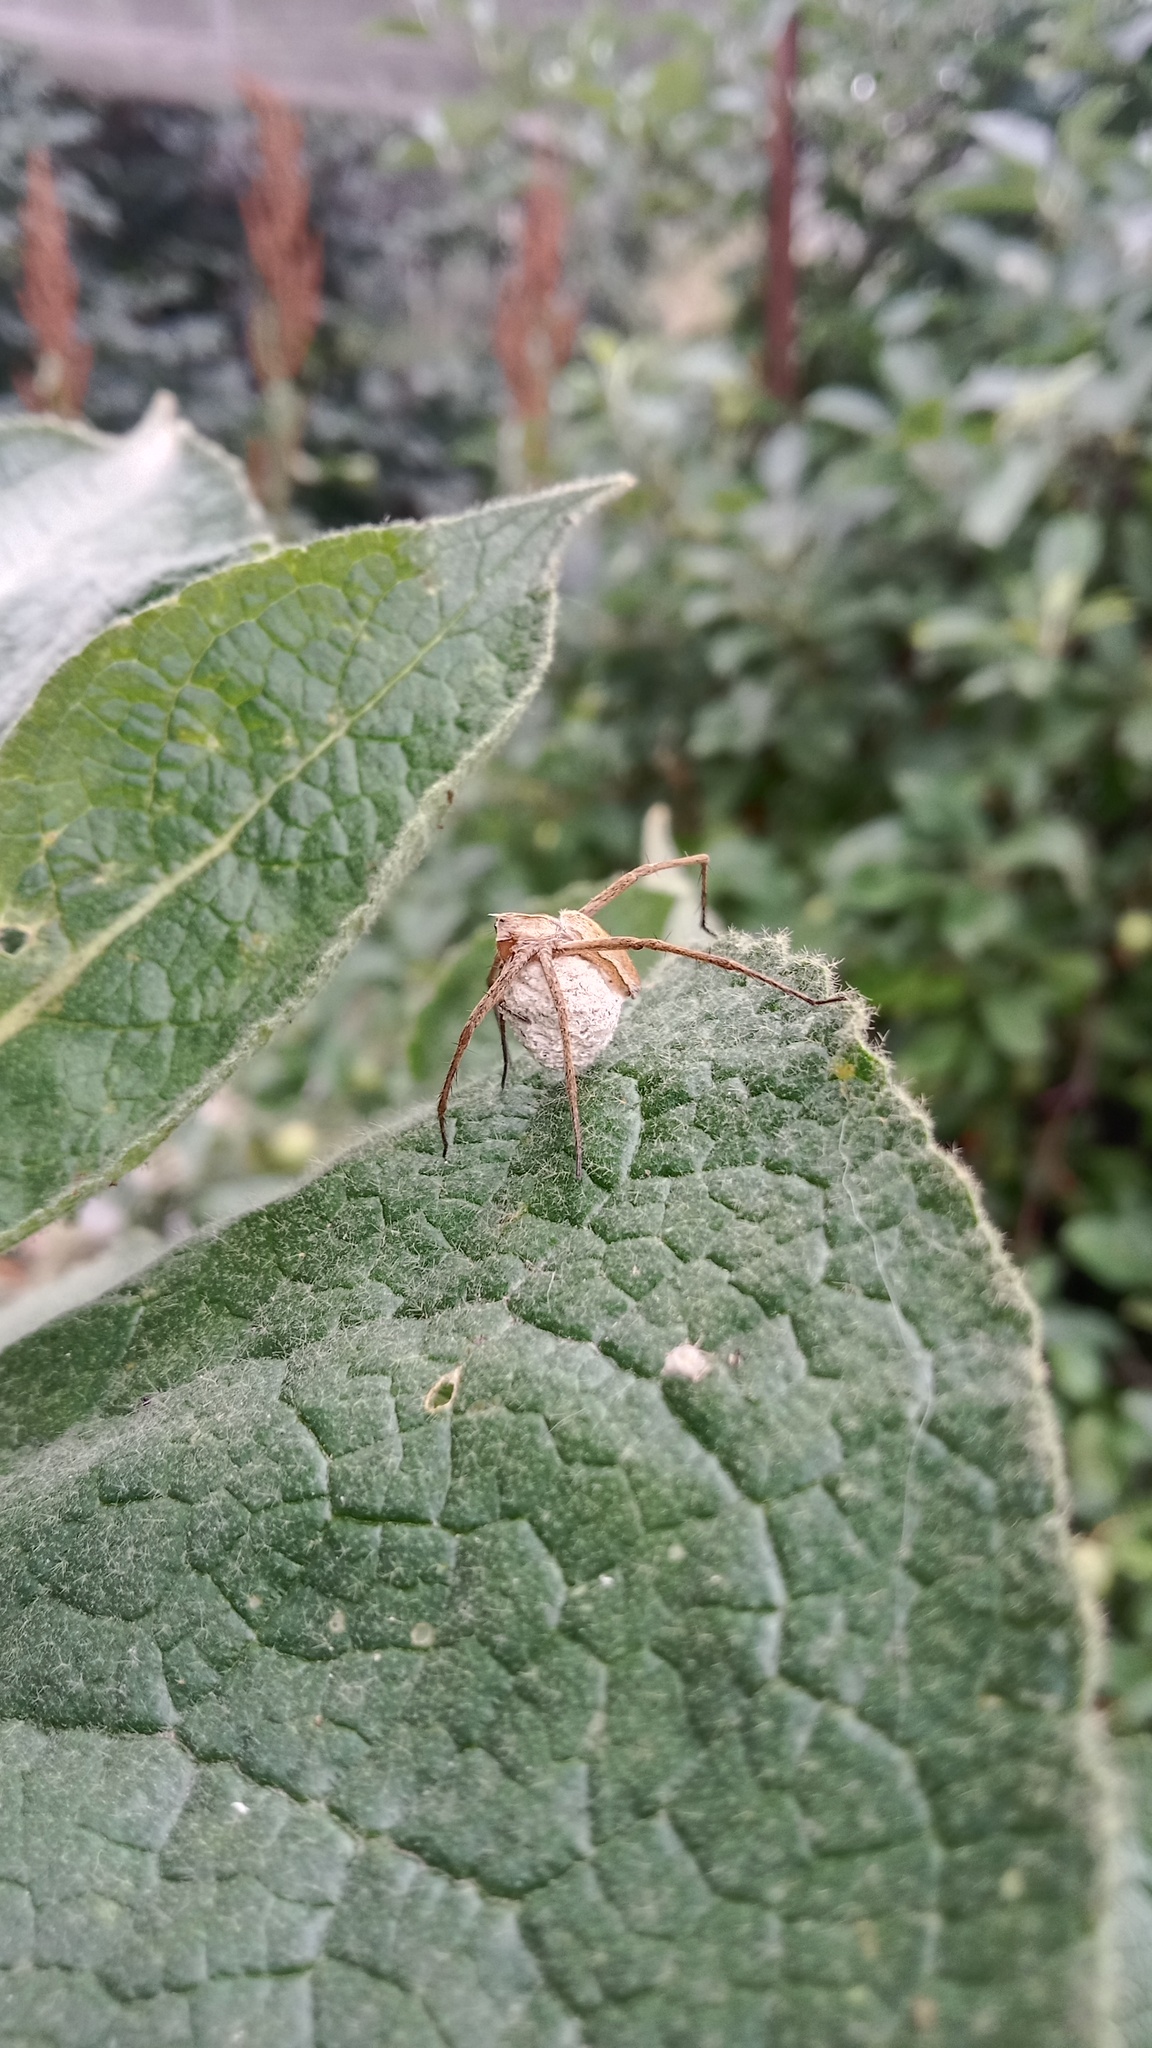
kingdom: Animalia
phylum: Arthropoda
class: Arachnida
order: Araneae
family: Pisauridae
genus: Pisaura
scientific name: Pisaura
